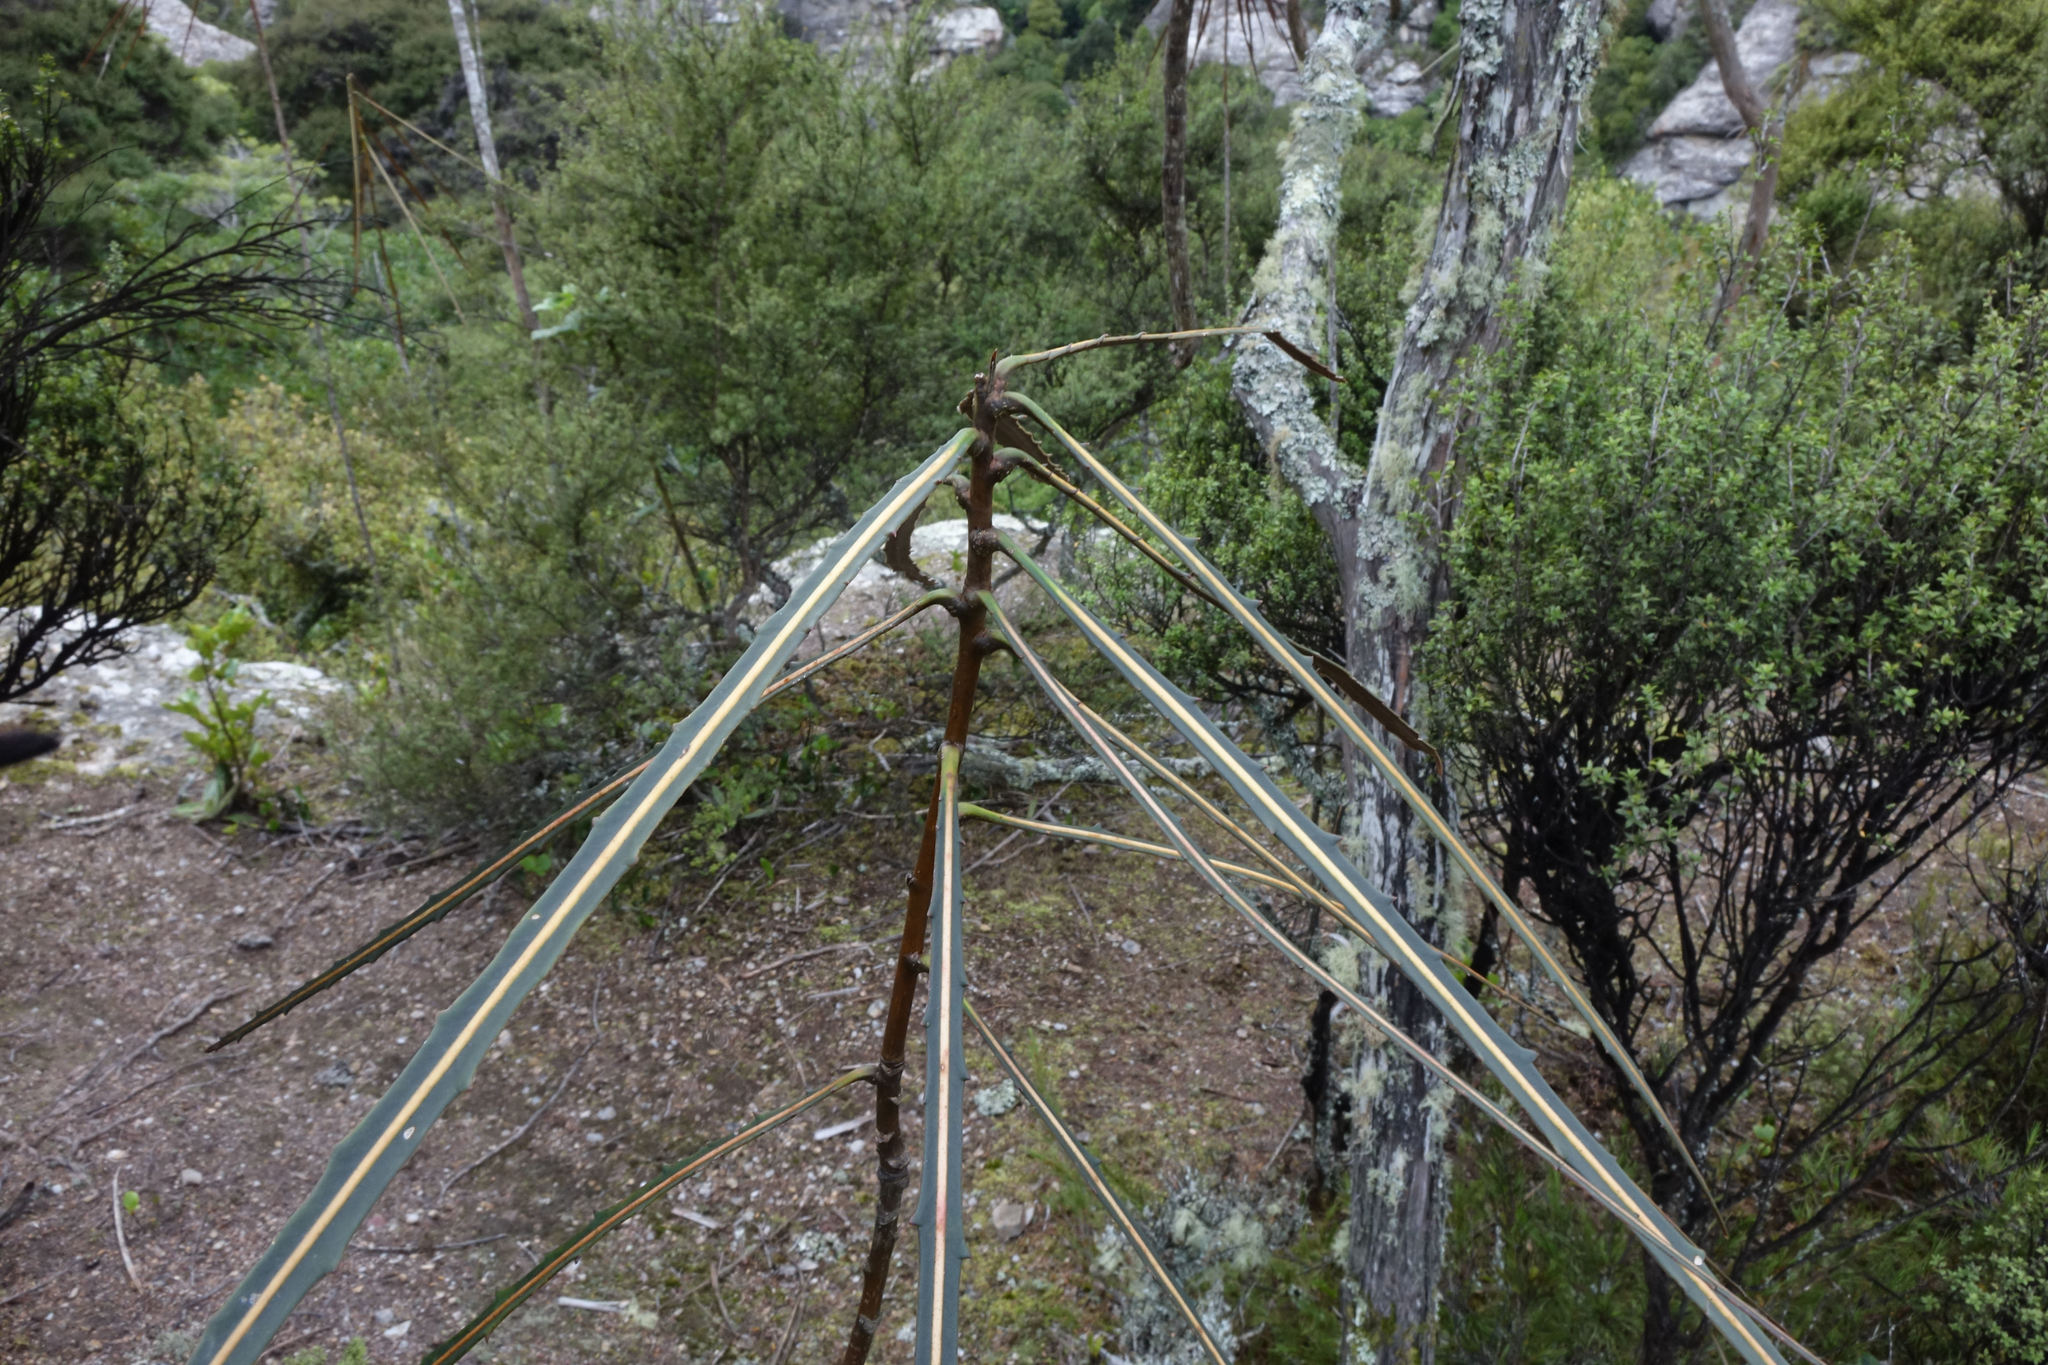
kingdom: Plantae
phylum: Tracheophyta
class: Magnoliopsida
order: Apiales
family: Araliaceae
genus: Pseudopanax
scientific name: Pseudopanax crassifolius
